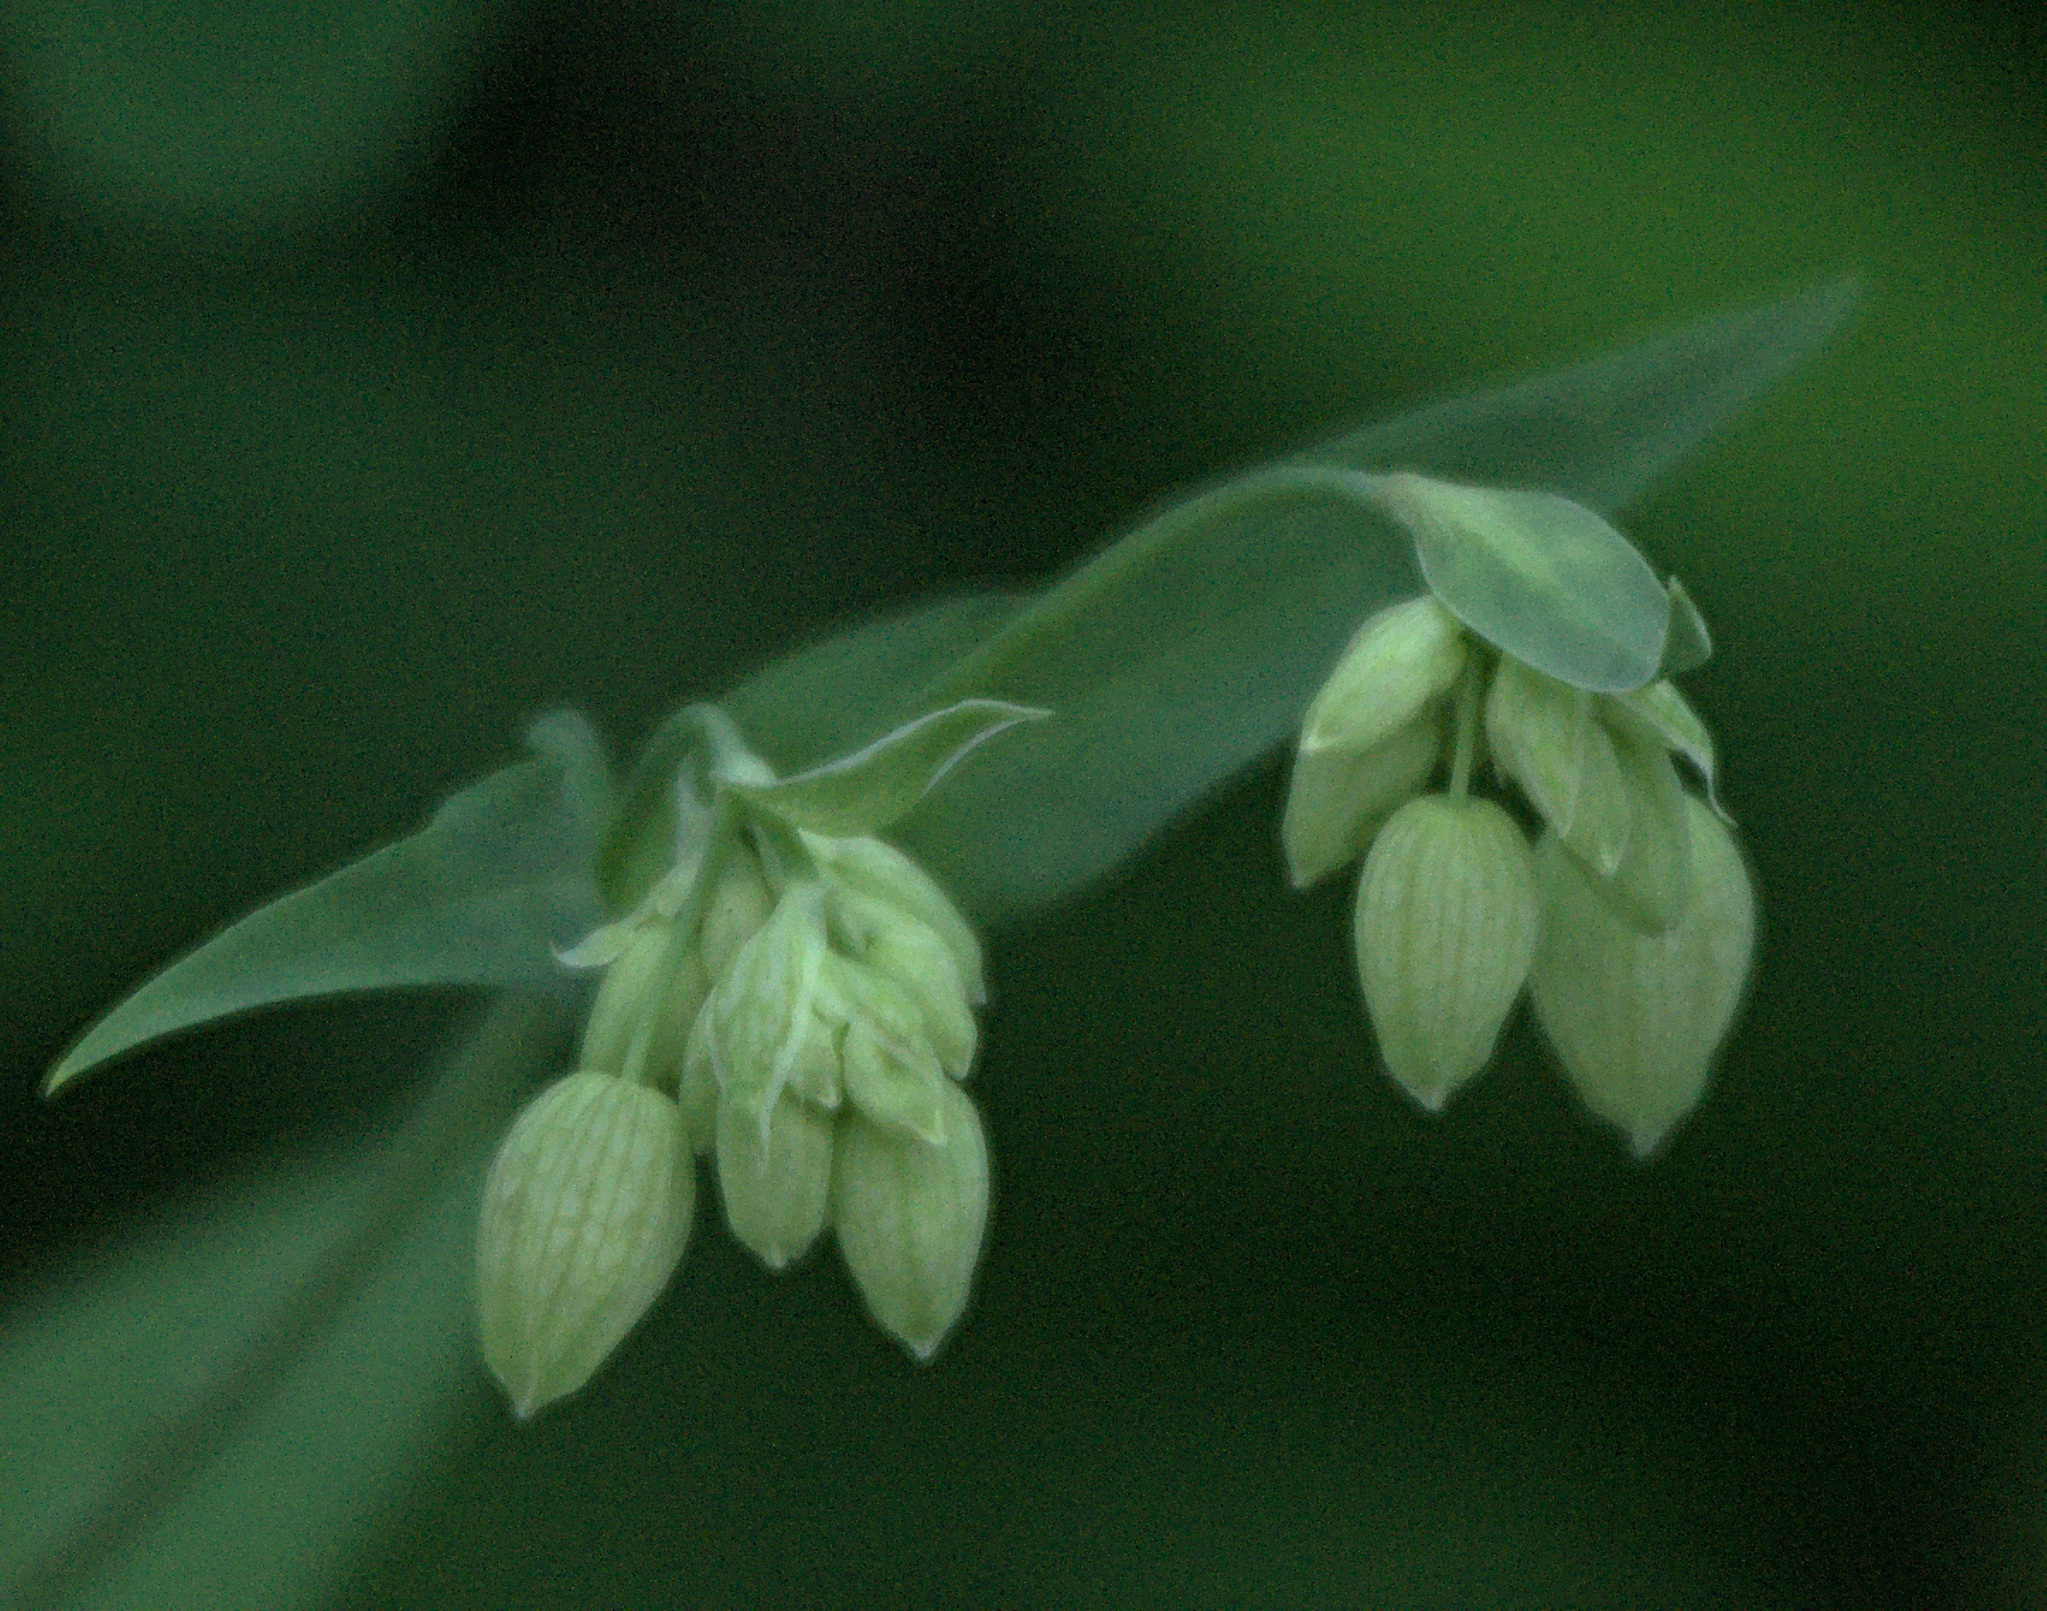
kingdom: Plantae
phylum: Tracheophyta
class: Magnoliopsida
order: Caryophyllales
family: Caryophyllaceae
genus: Silene
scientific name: Silene vulgaris
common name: Bladder campion
